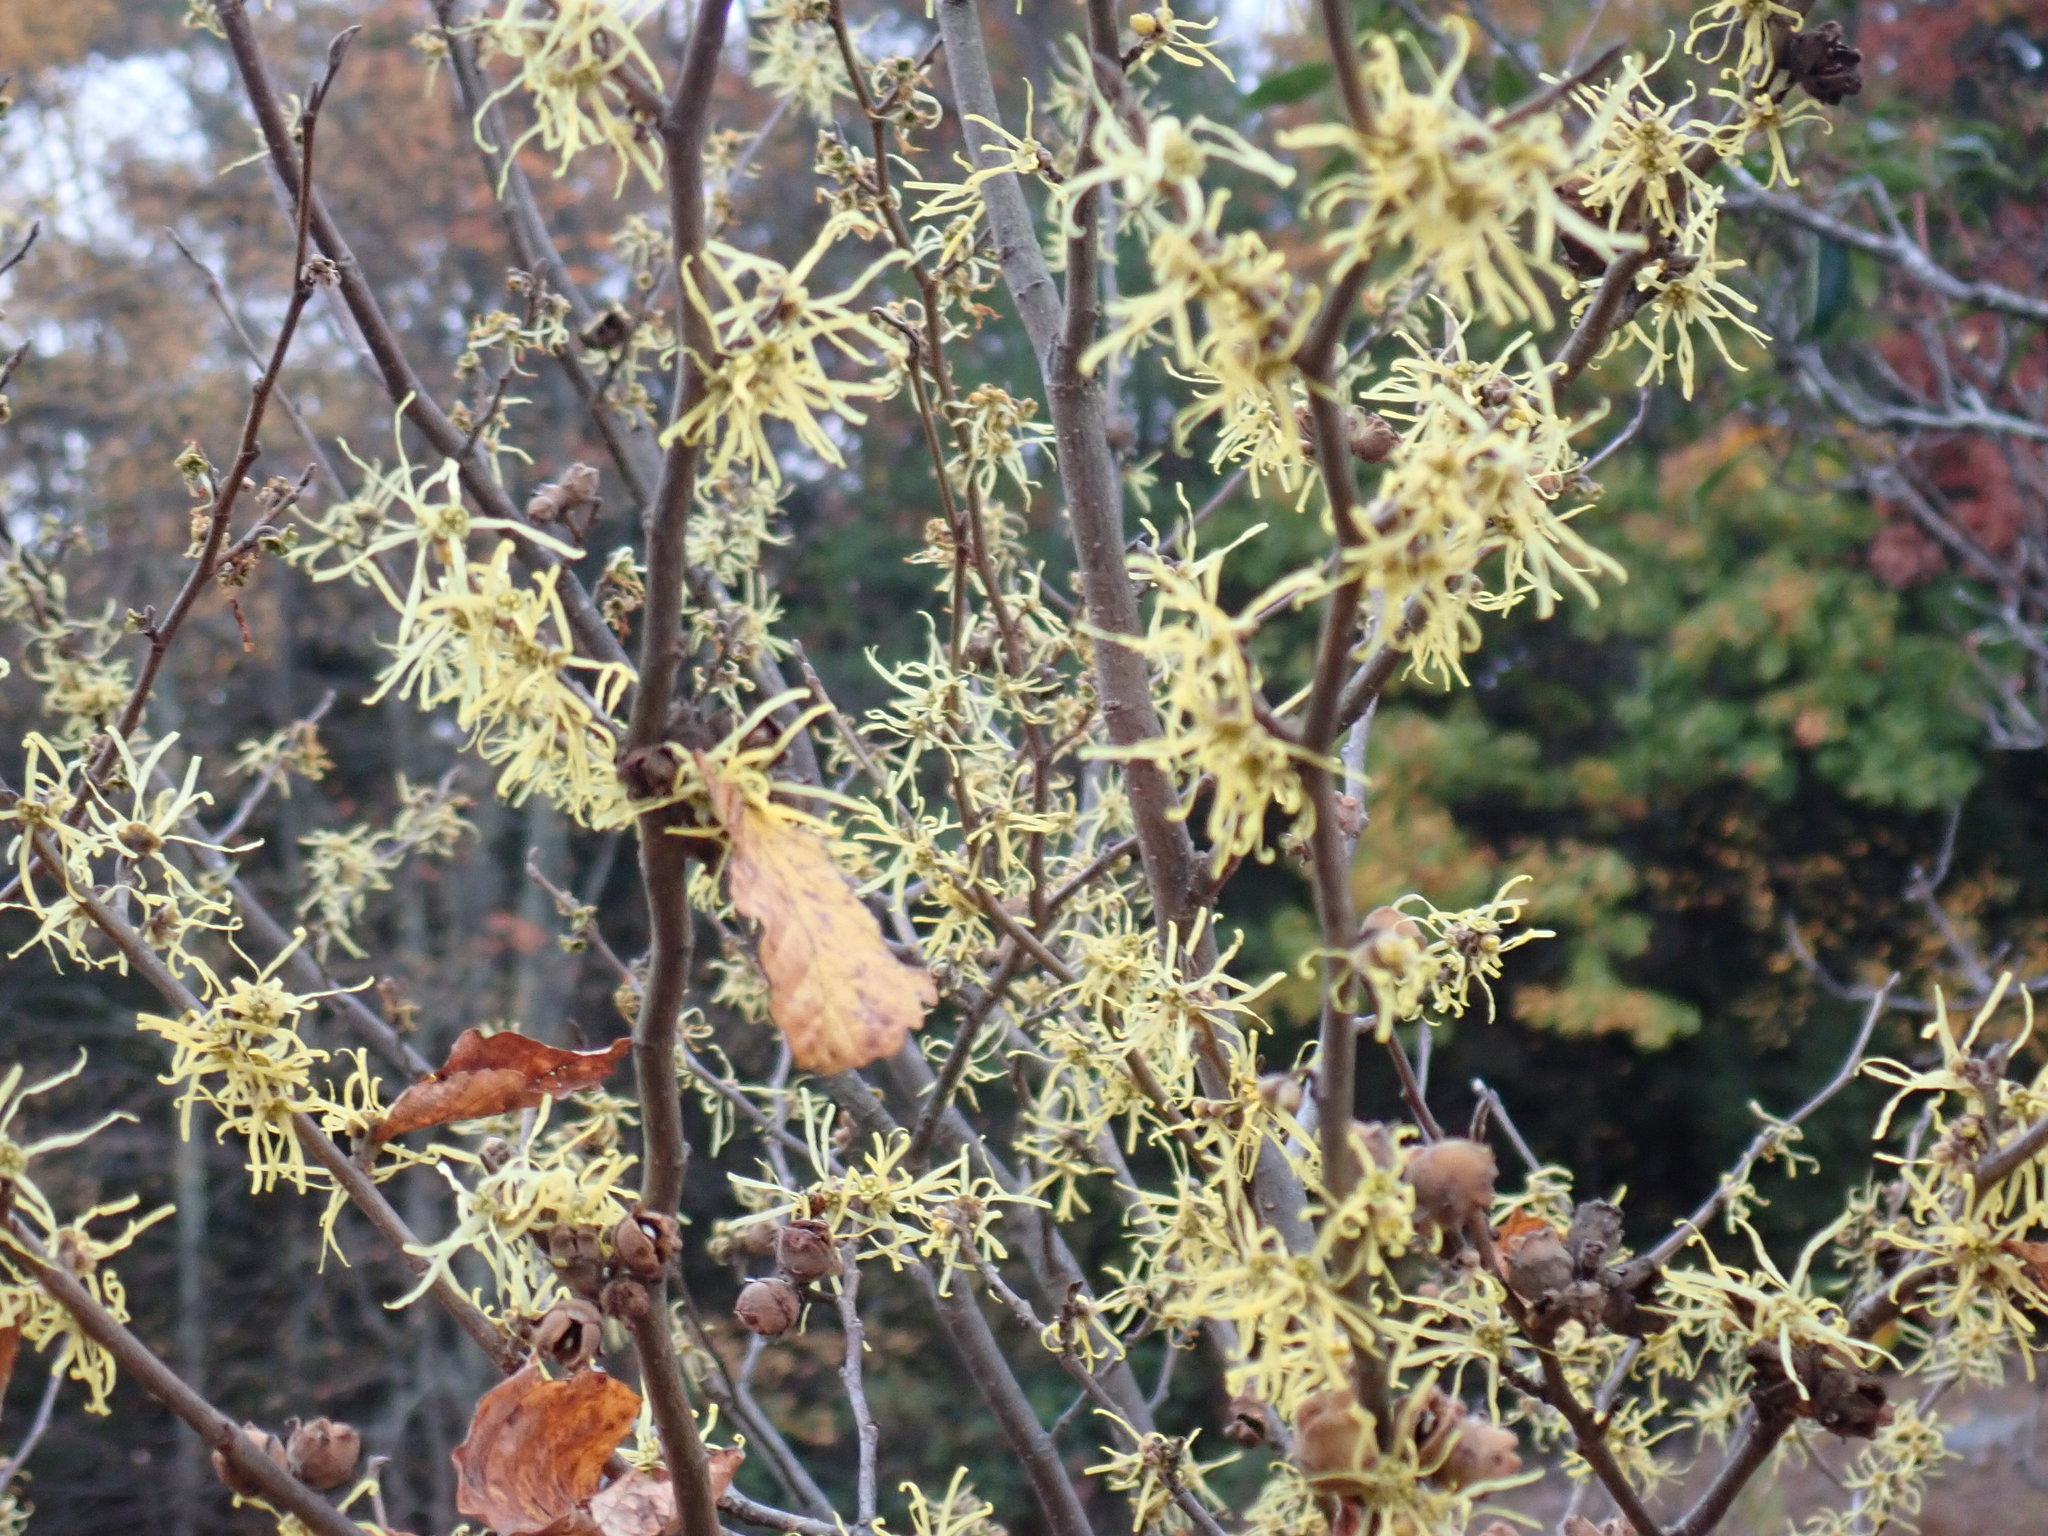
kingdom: Plantae
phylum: Tracheophyta
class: Magnoliopsida
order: Saxifragales
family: Hamamelidaceae
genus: Hamamelis
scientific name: Hamamelis virginiana
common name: Witch-hazel
